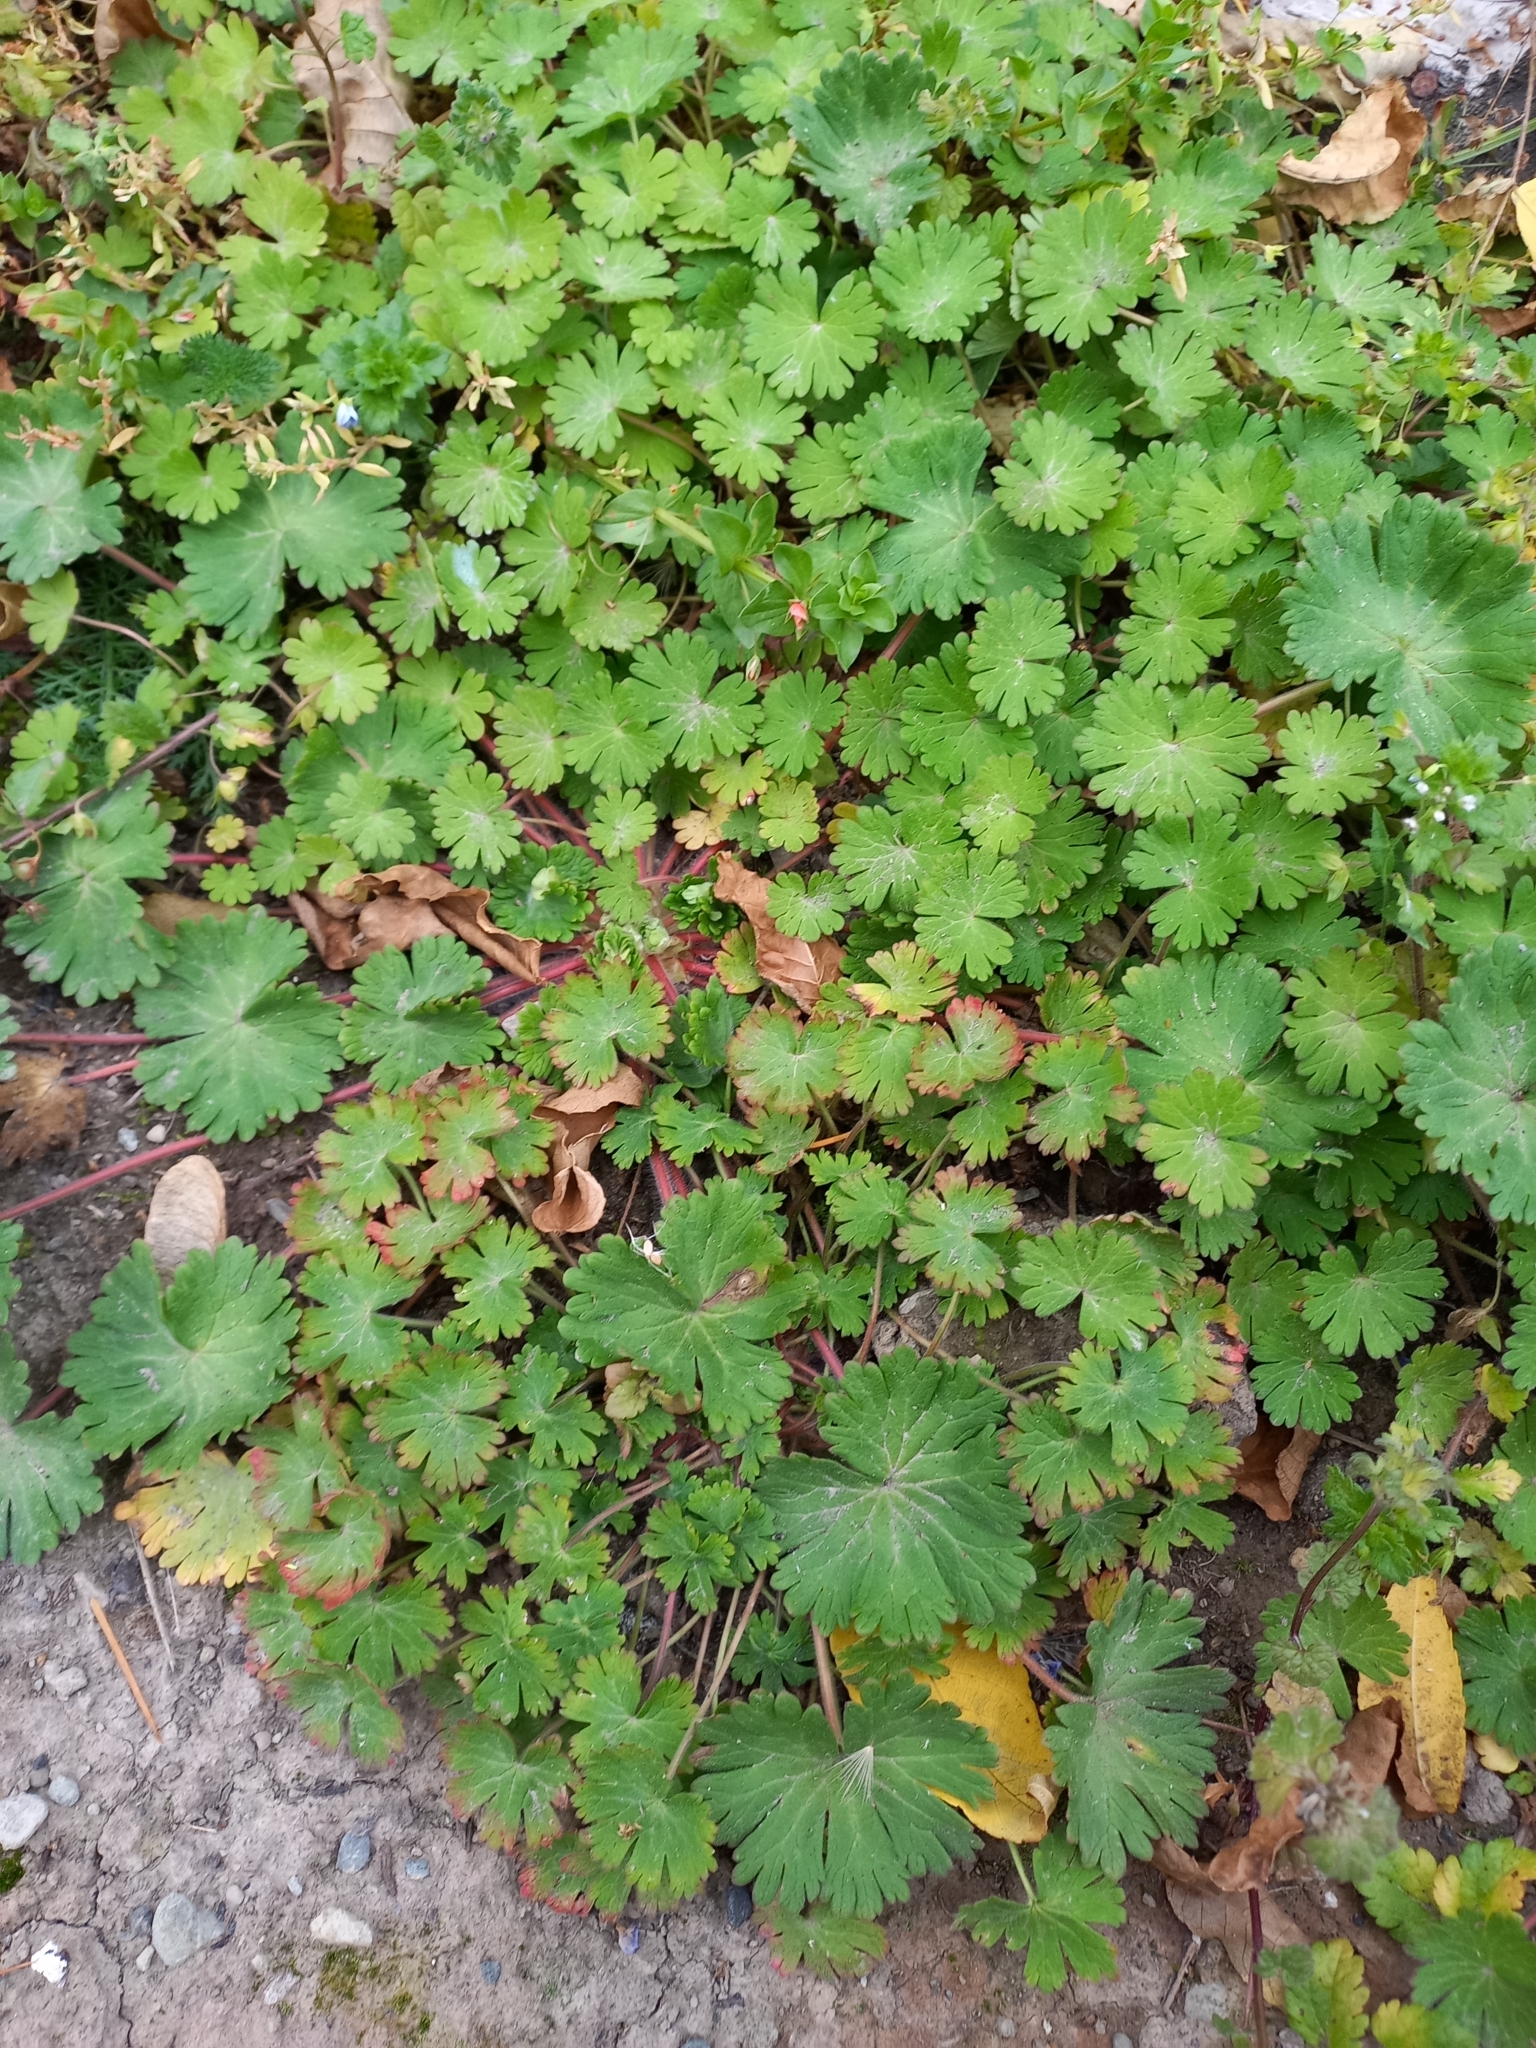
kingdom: Plantae
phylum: Tracheophyta
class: Magnoliopsida
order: Geraniales
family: Geraniaceae
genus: Geranium
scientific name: Geranium molle
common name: Dove's-foot crane's-bill
